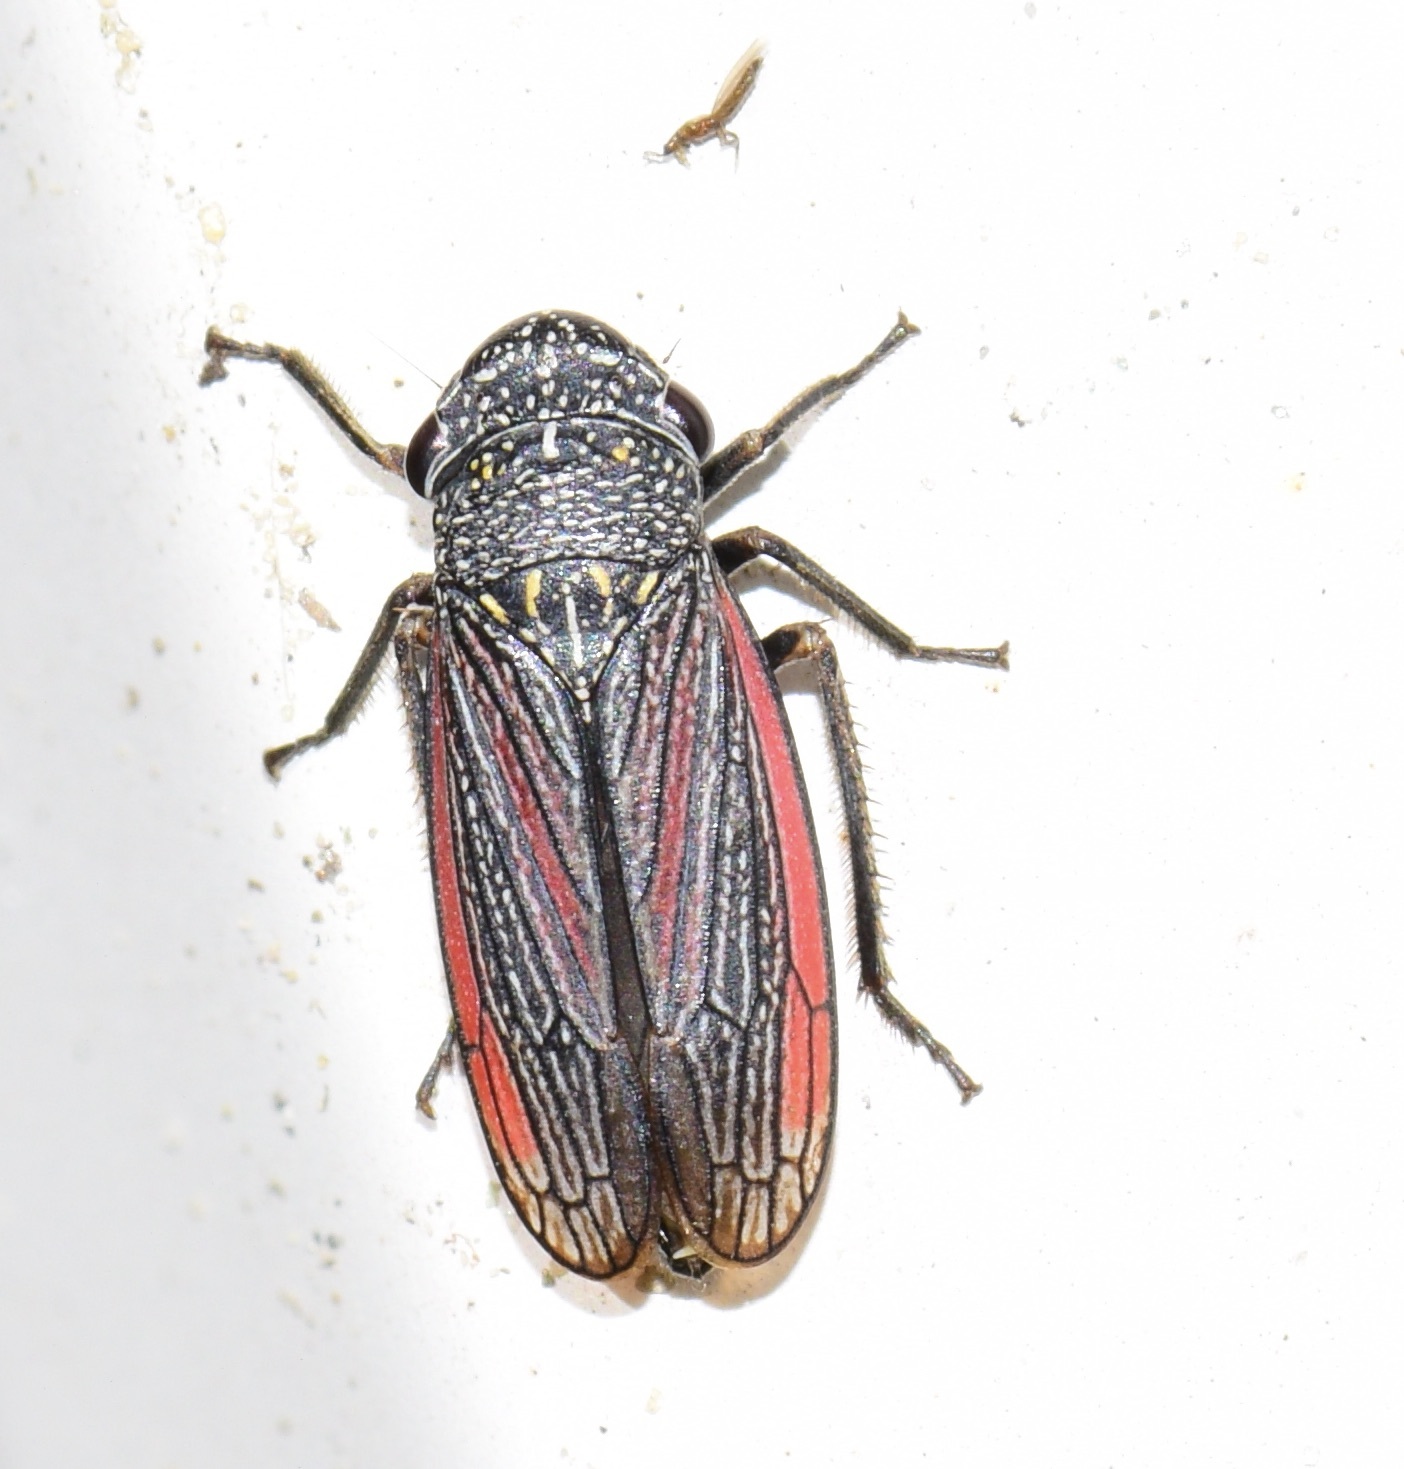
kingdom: Animalia
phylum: Arthropoda
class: Insecta
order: Hemiptera
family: Cicadellidae
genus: Cuerna
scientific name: Cuerna striata
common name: Striped leafhopper
